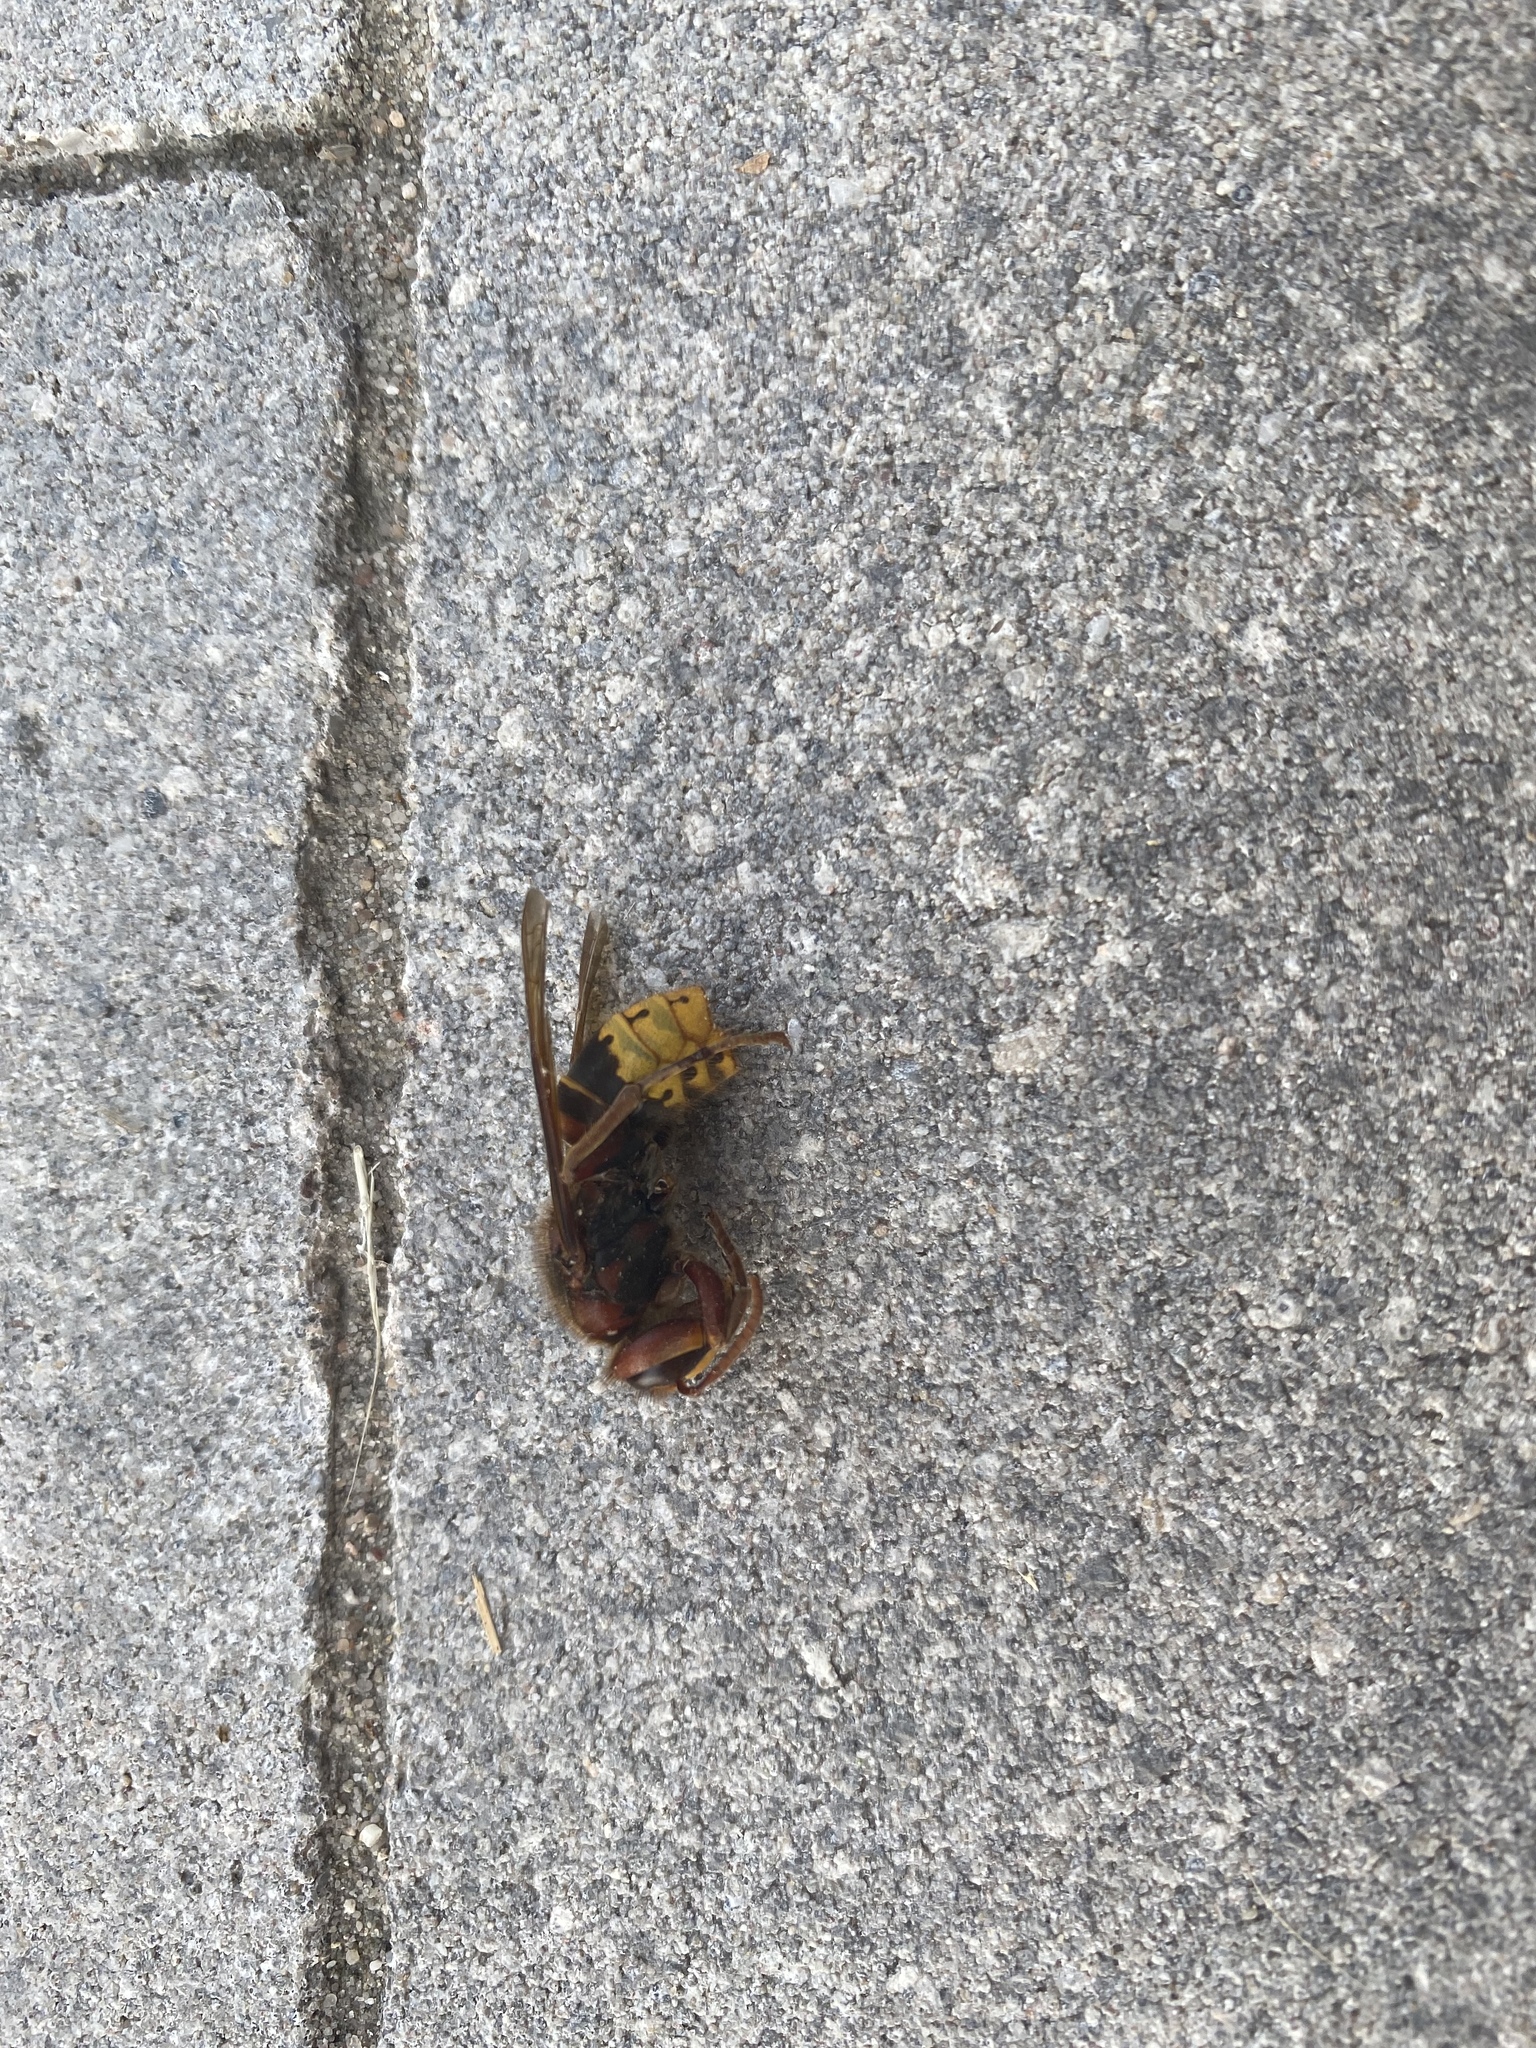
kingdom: Animalia
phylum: Arthropoda
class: Insecta
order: Hymenoptera
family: Vespidae
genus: Vespa
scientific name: Vespa crabro
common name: Hornet
